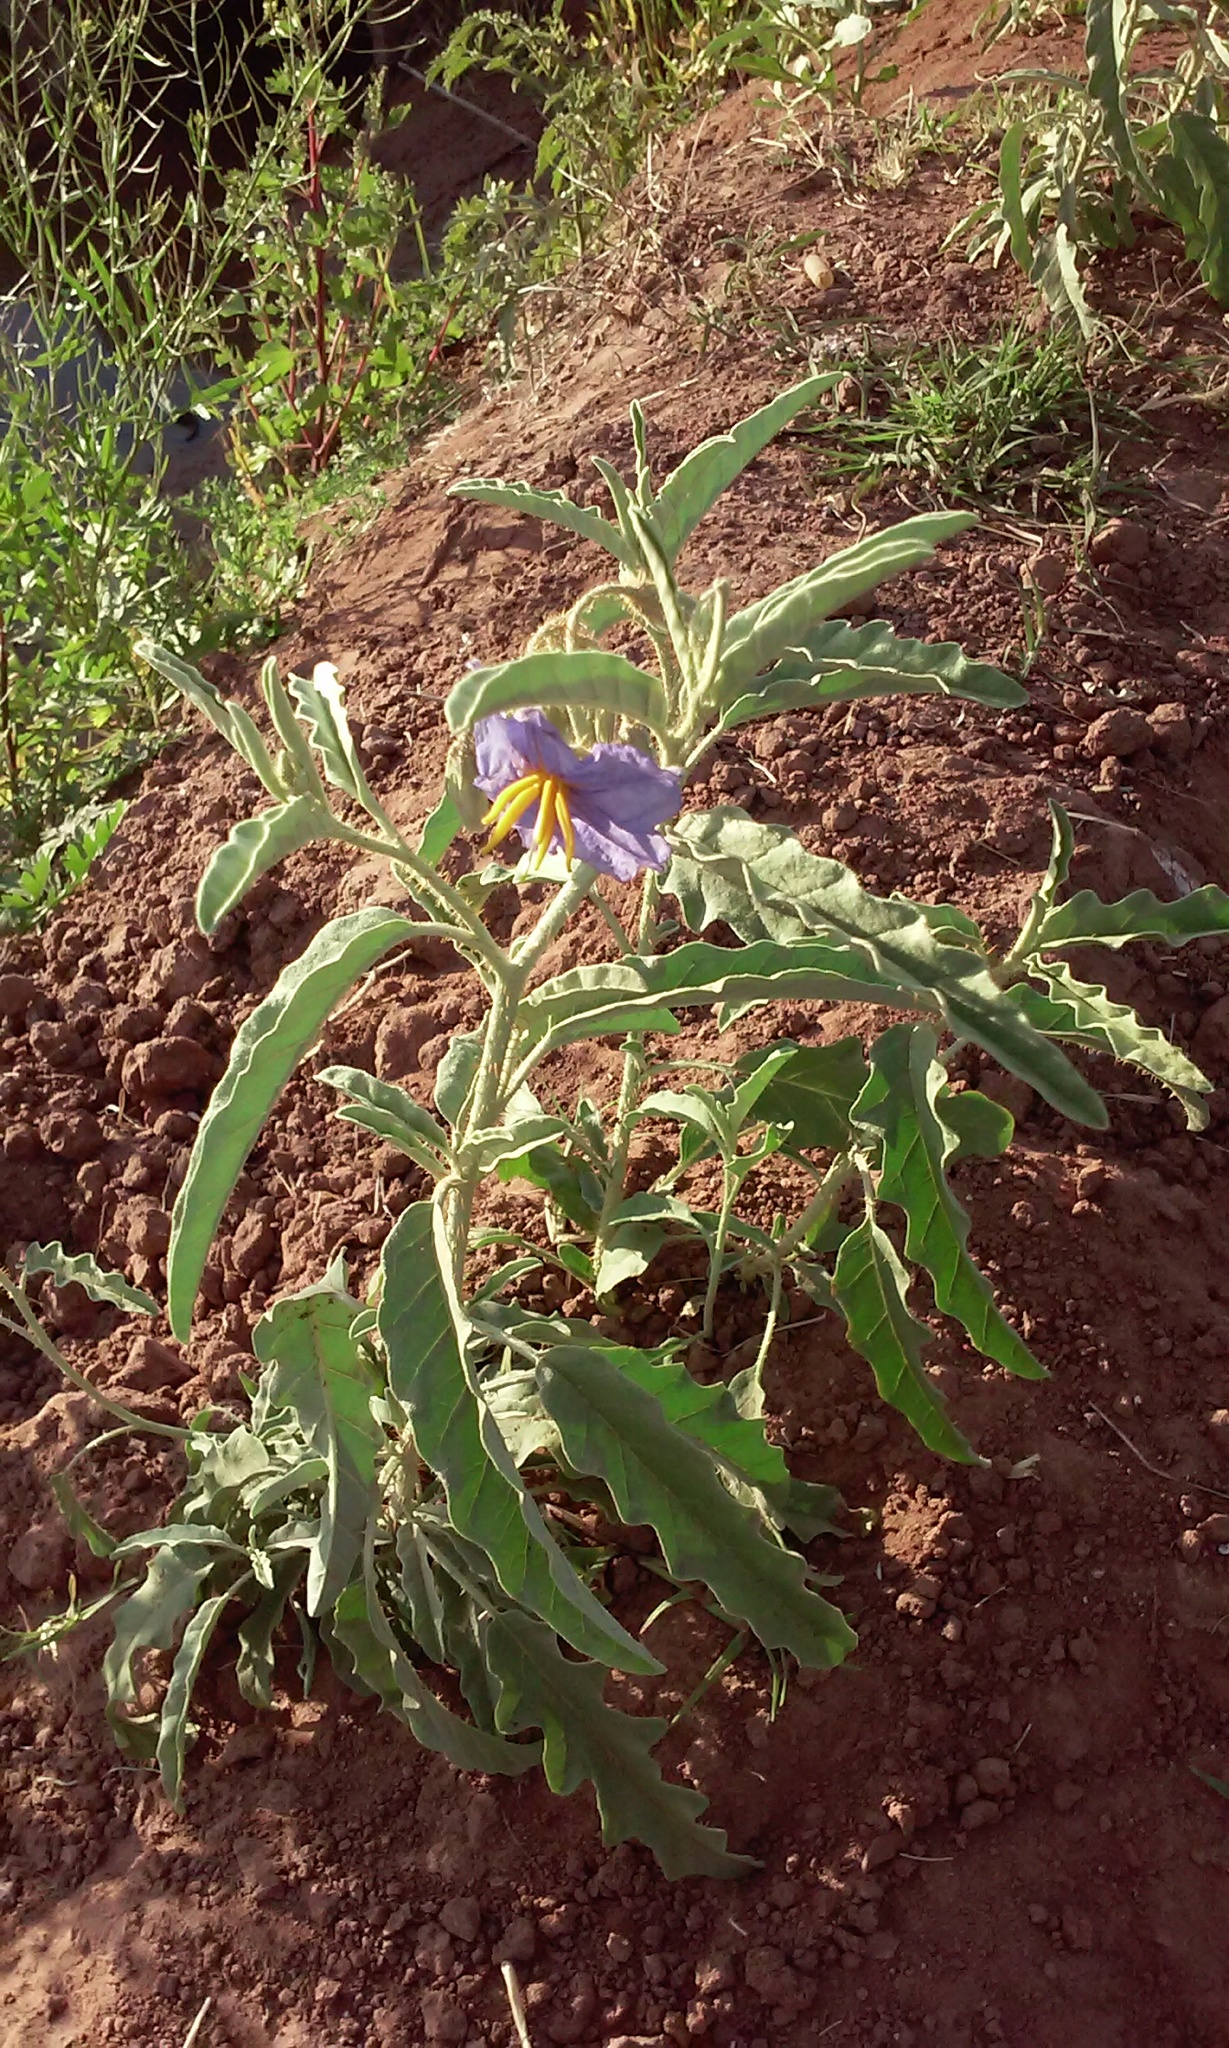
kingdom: Plantae
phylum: Tracheophyta
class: Magnoliopsida
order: Solanales
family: Solanaceae
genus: Solanum
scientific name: Solanum elaeagnifolium
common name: Silverleaf nightshade
